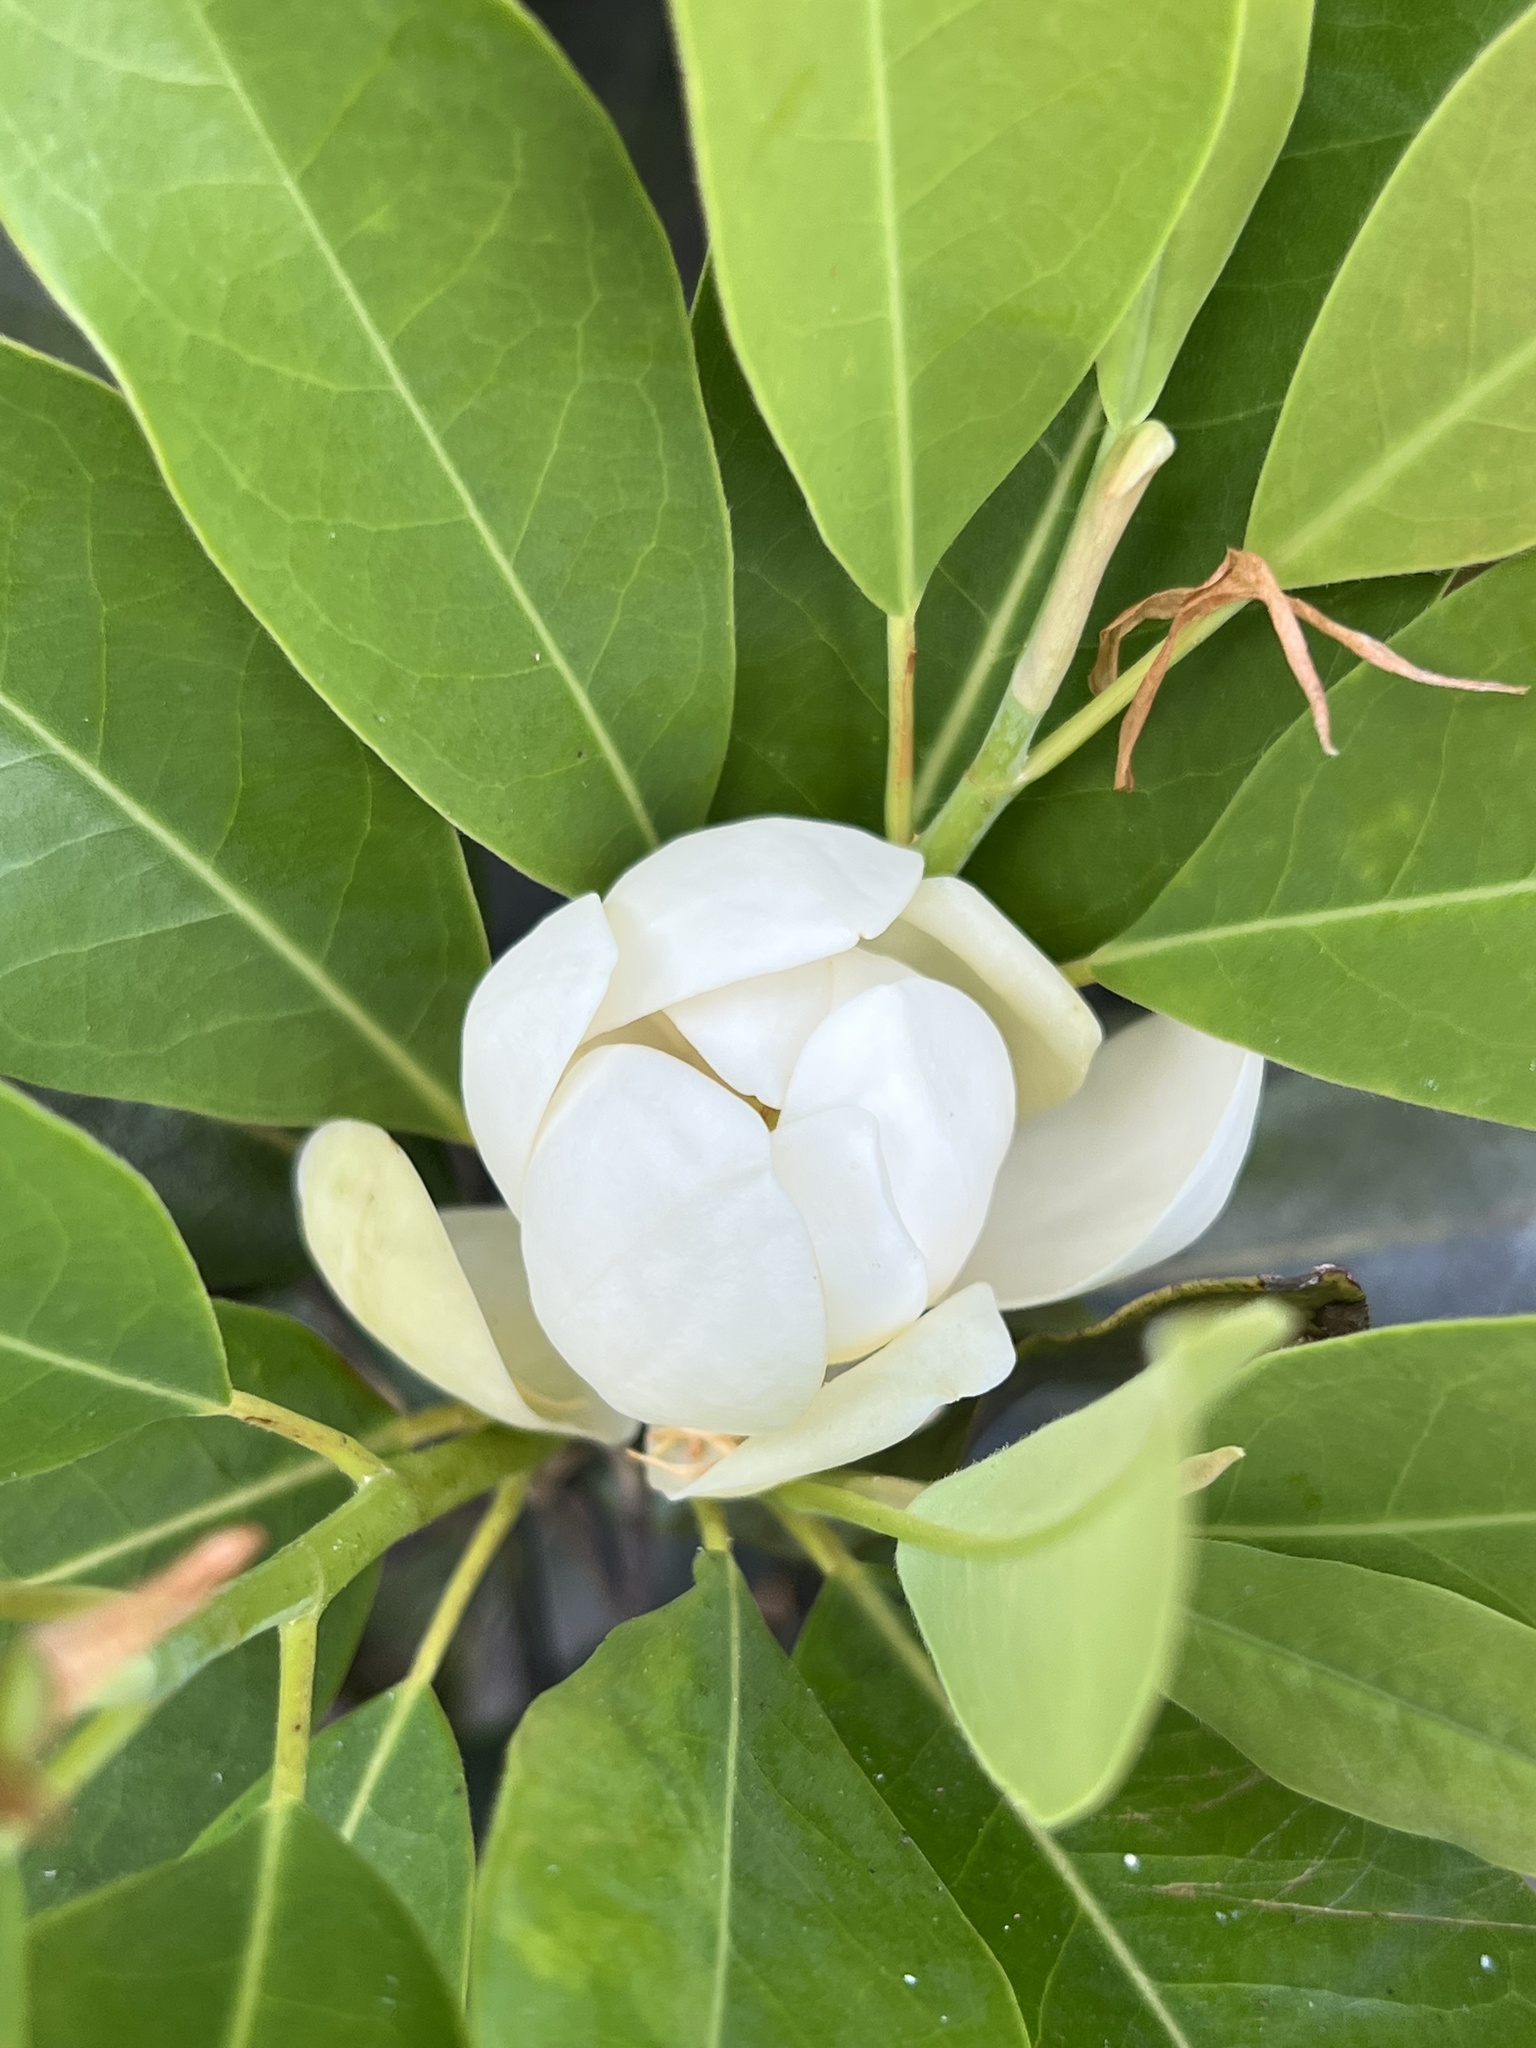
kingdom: Plantae
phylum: Tracheophyta
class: Magnoliopsida
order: Magnoliales
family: Magnoliaceae
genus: Magnolia
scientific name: Magnolia virginiana
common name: Swamp bay
